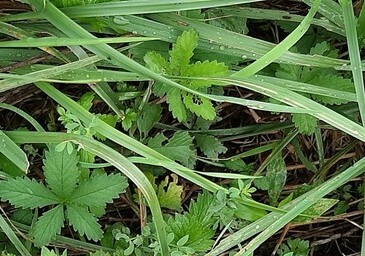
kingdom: Plantae
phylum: Tracheophyta
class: Magnoliopsida
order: Rosales
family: Rosaceae
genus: Potentilla
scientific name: Potentilla reptans
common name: Creeping cinquefoil
